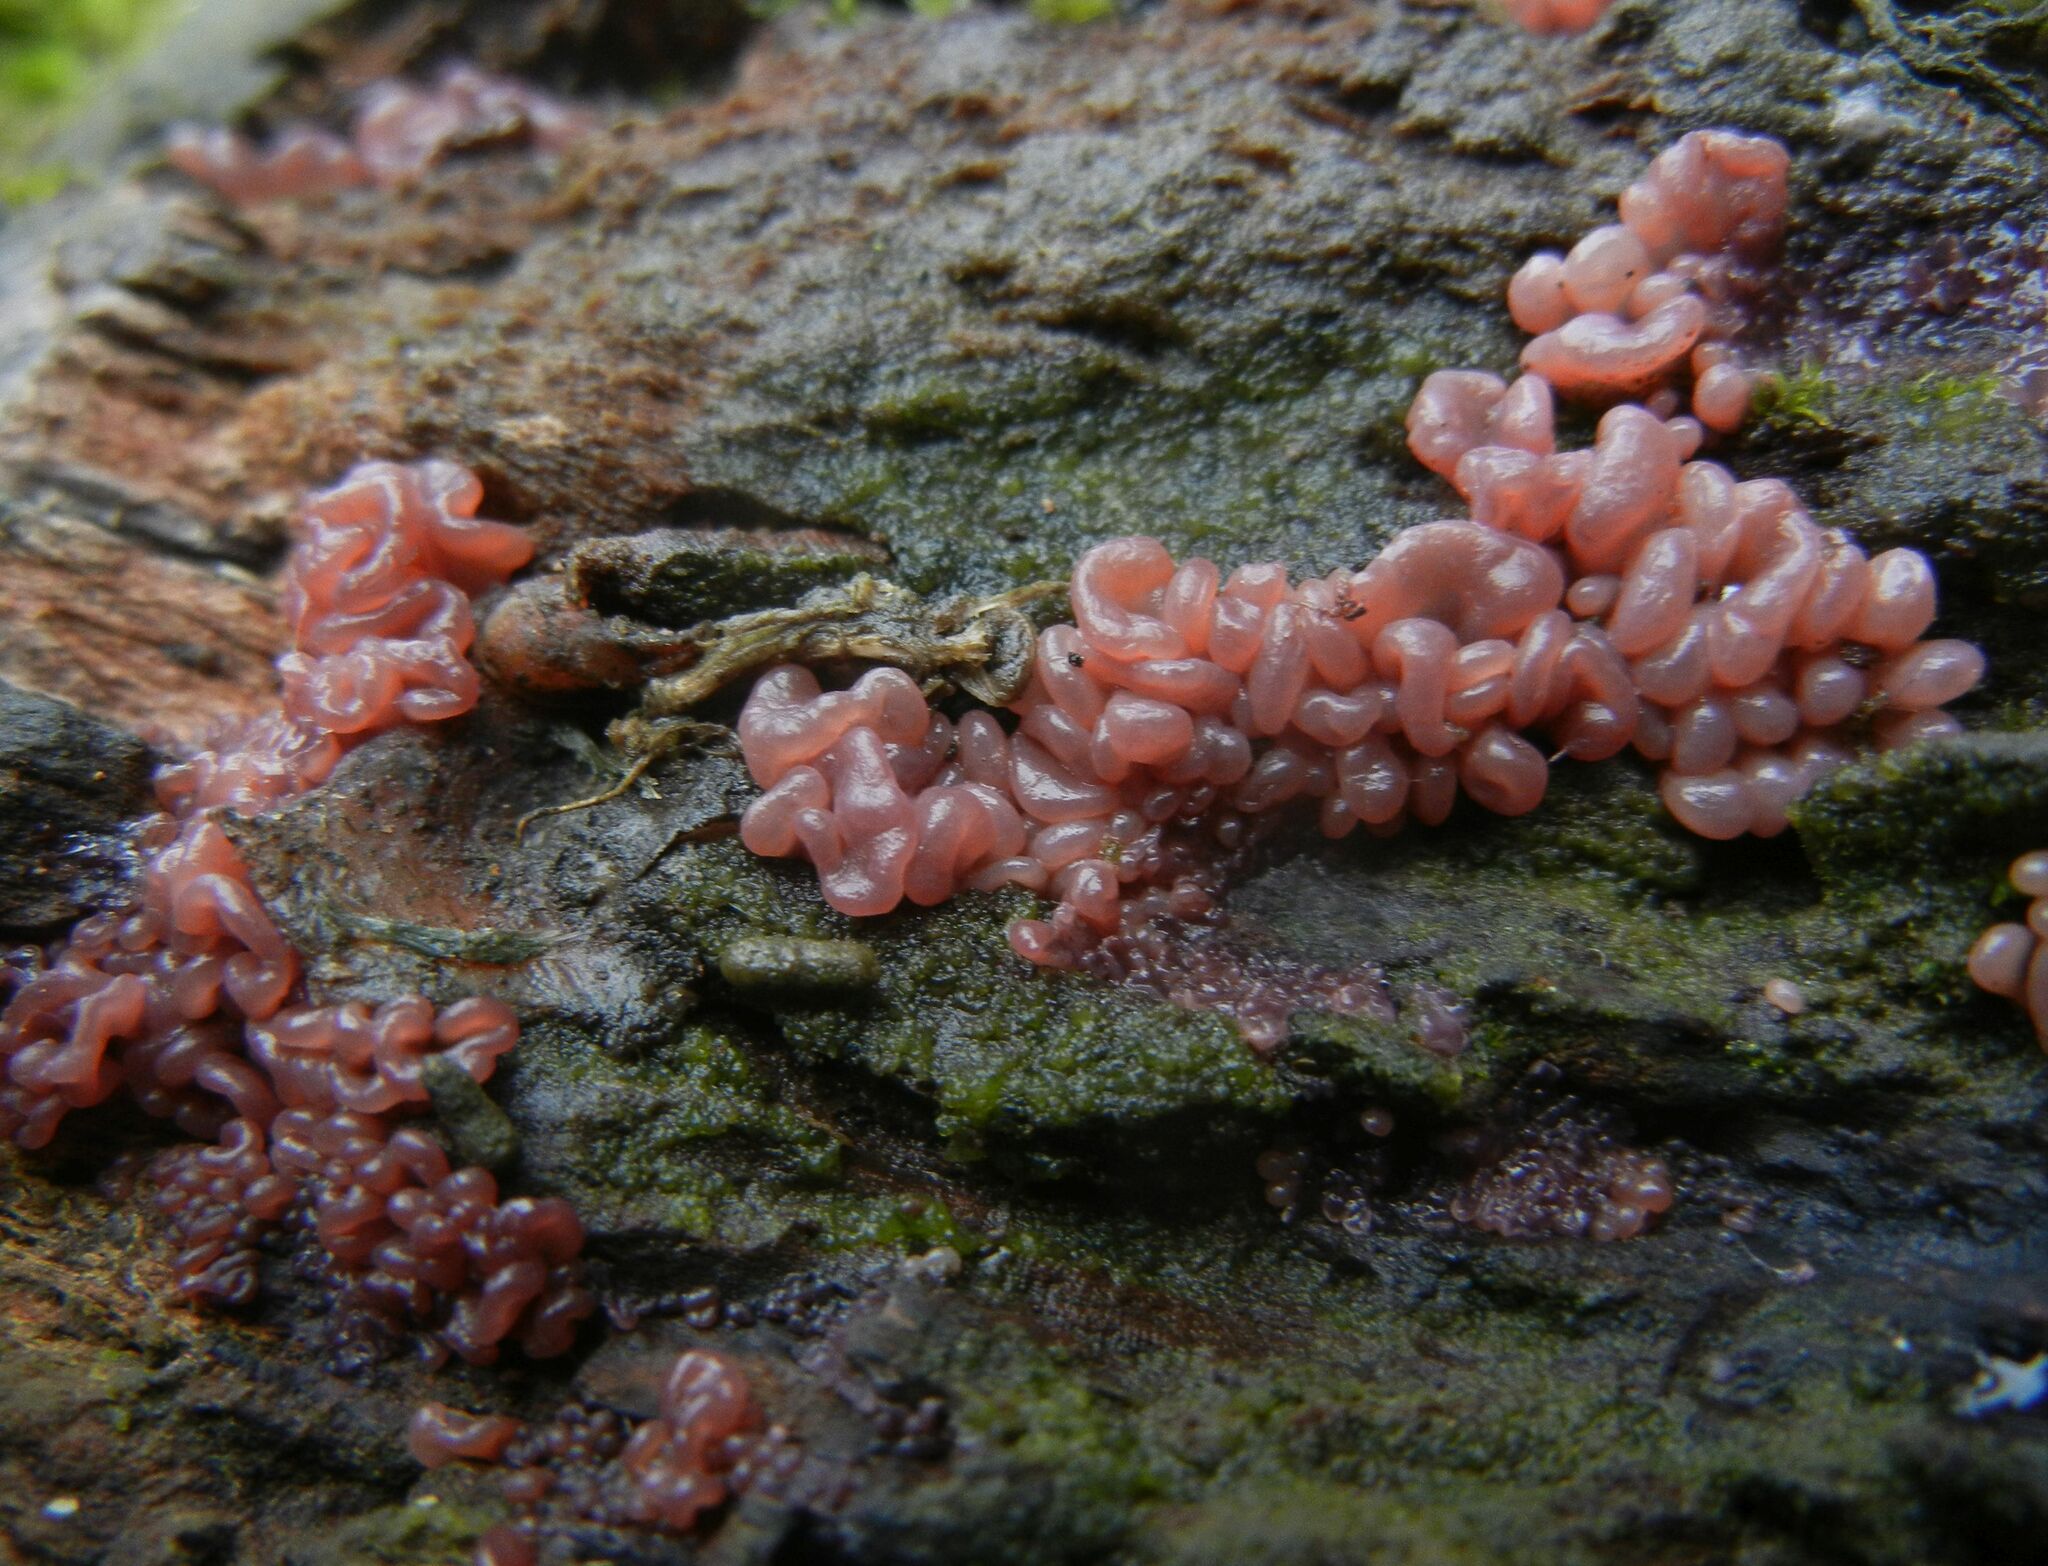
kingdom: Fungi
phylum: Ascomycota
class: Leotiomycetes
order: Helotiales
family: Gelatinodiscaceae
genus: Ascocoryne
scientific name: Ascocoryne sarcoides
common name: Purple jellydisc
